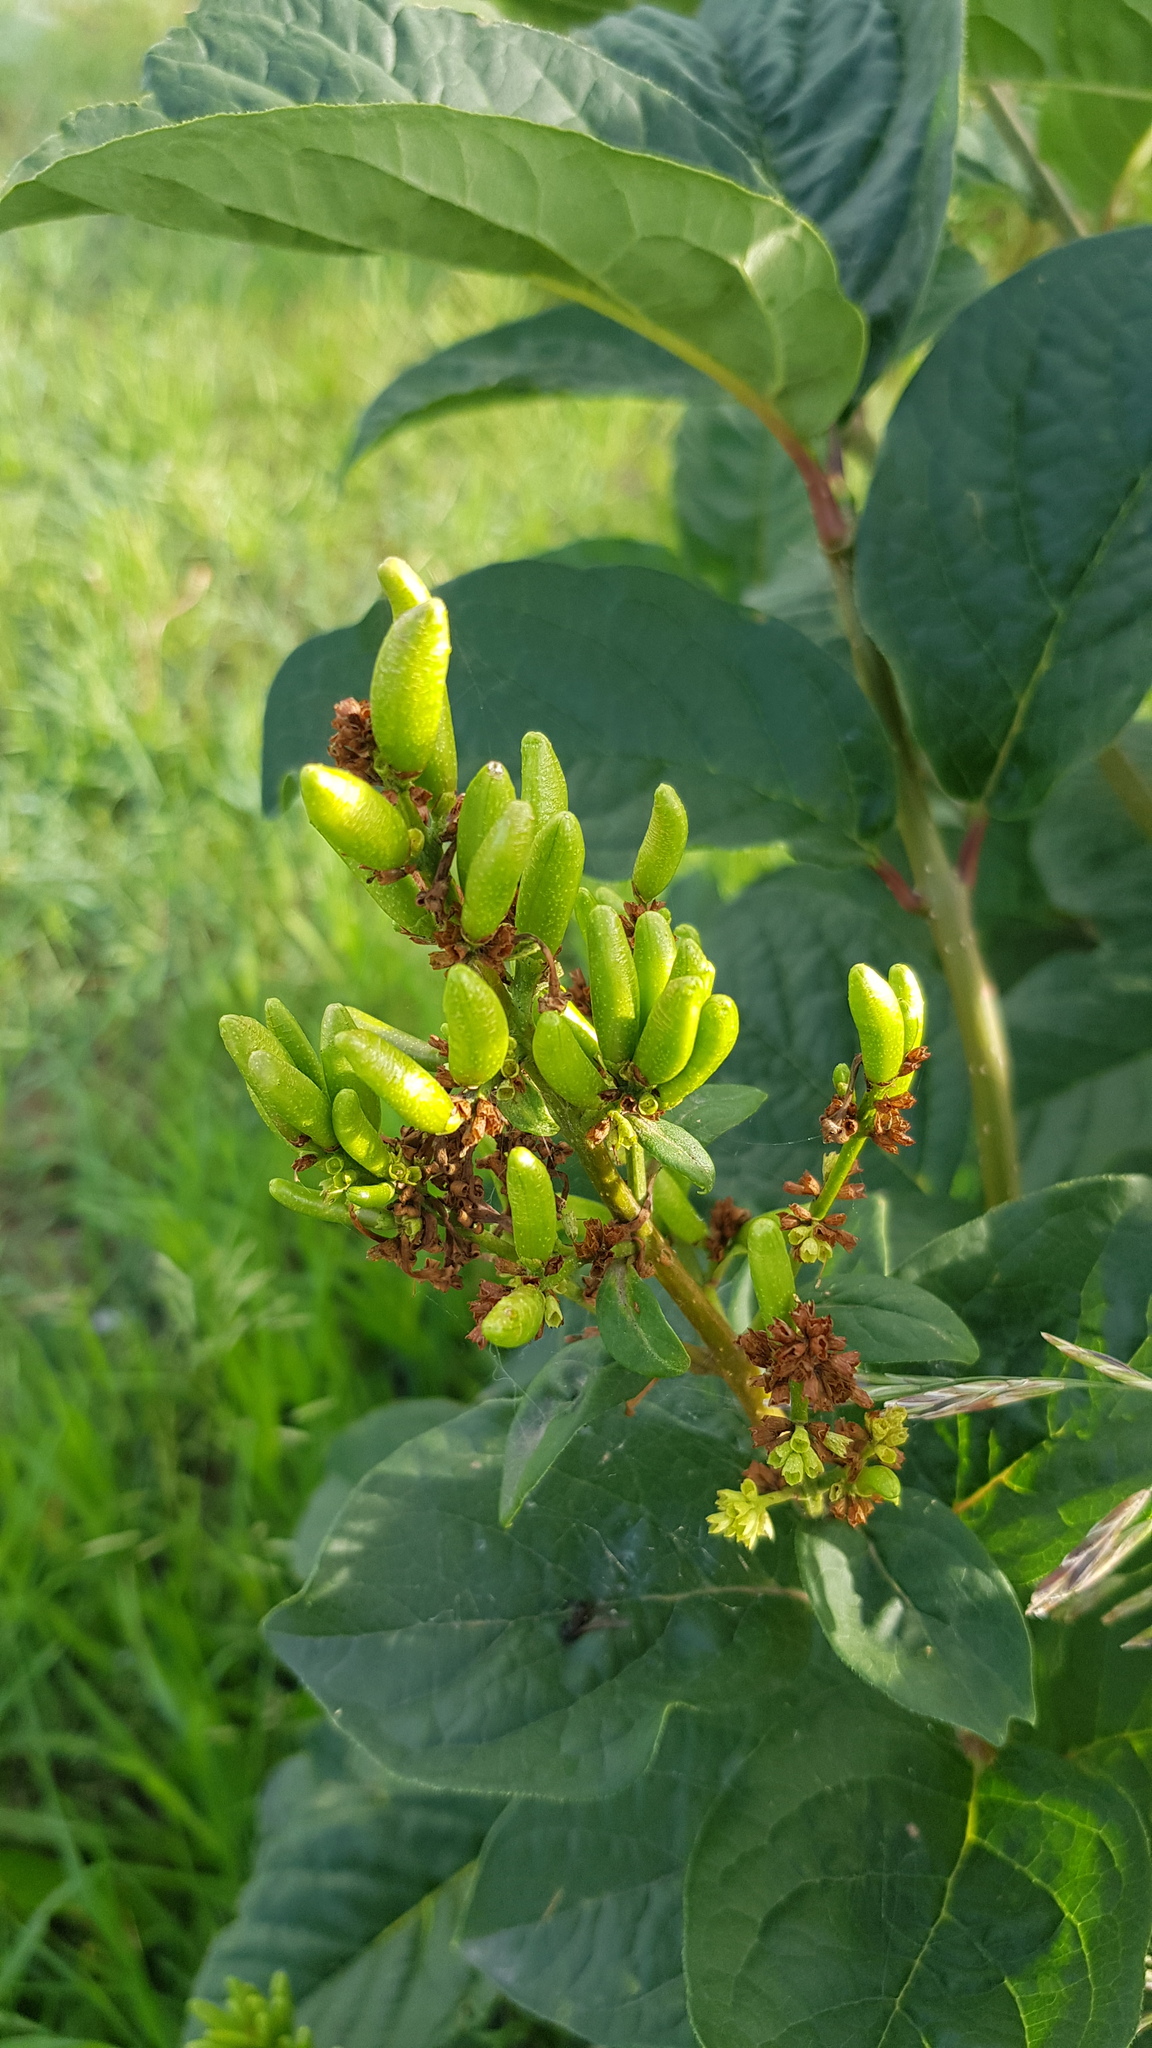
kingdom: Plantae
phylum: Tracheophyta
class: Magnoliopsida
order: Lamiales
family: Oleaceae
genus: Syringa
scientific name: Syringa josikaea
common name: Hungarian lilac
